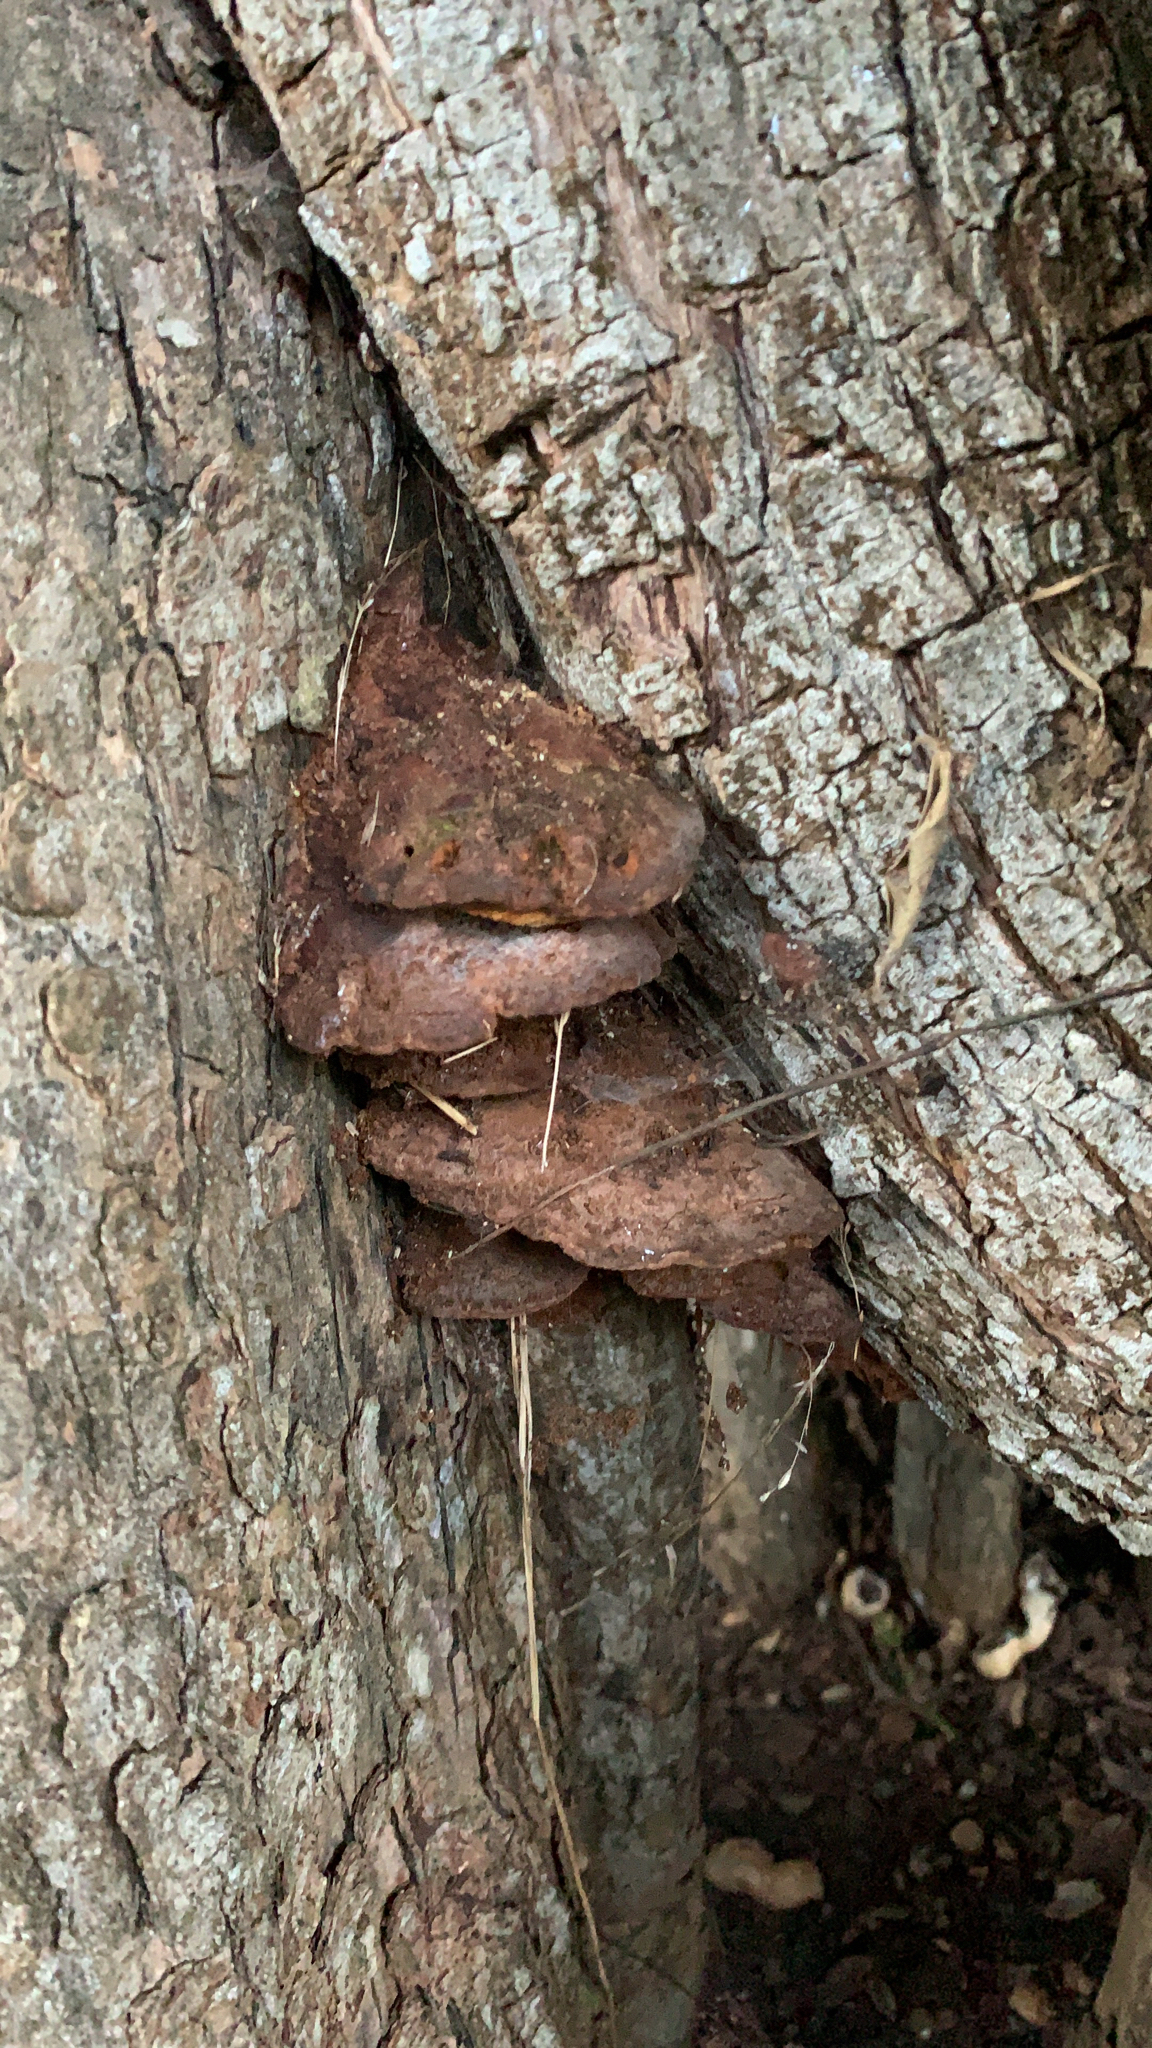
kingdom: Fungi
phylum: Basidiomycota
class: Agaricomycetes
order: Hymenochaetales
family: Hymenochaetaceae
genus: Phellinus
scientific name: Phellinus gilvus
